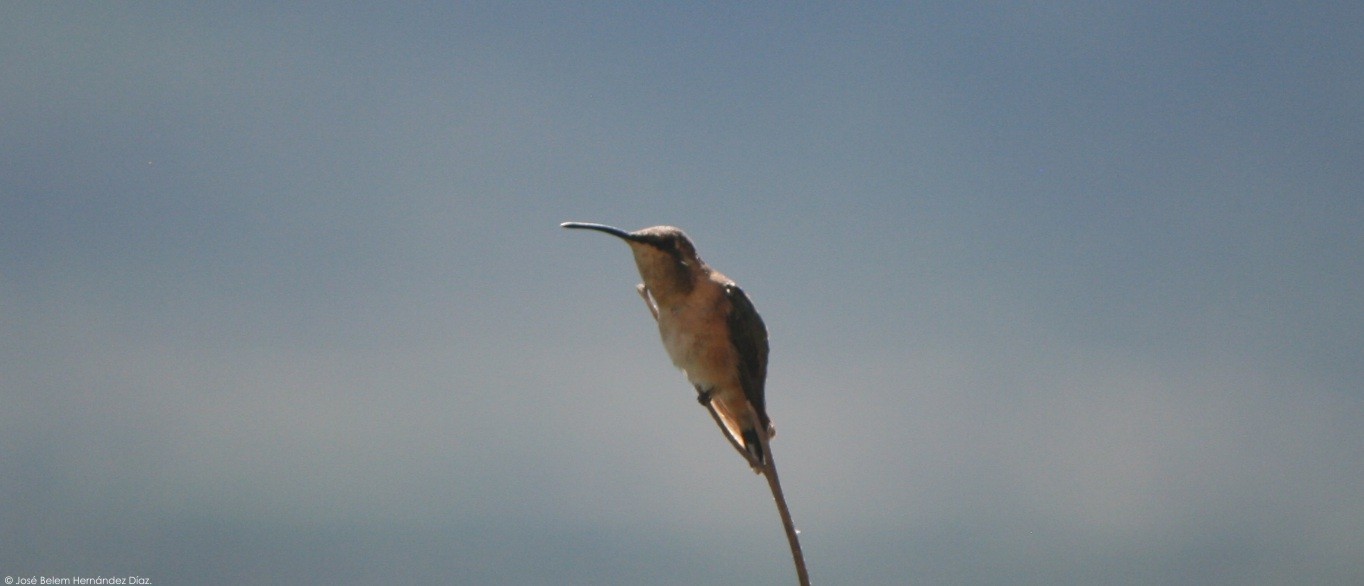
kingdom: Animalia
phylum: Chordata
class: Aves
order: Apodiformes
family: Trochilidae
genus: Calothorax
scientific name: Calothorax lucifer
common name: Lucifer sheartail
